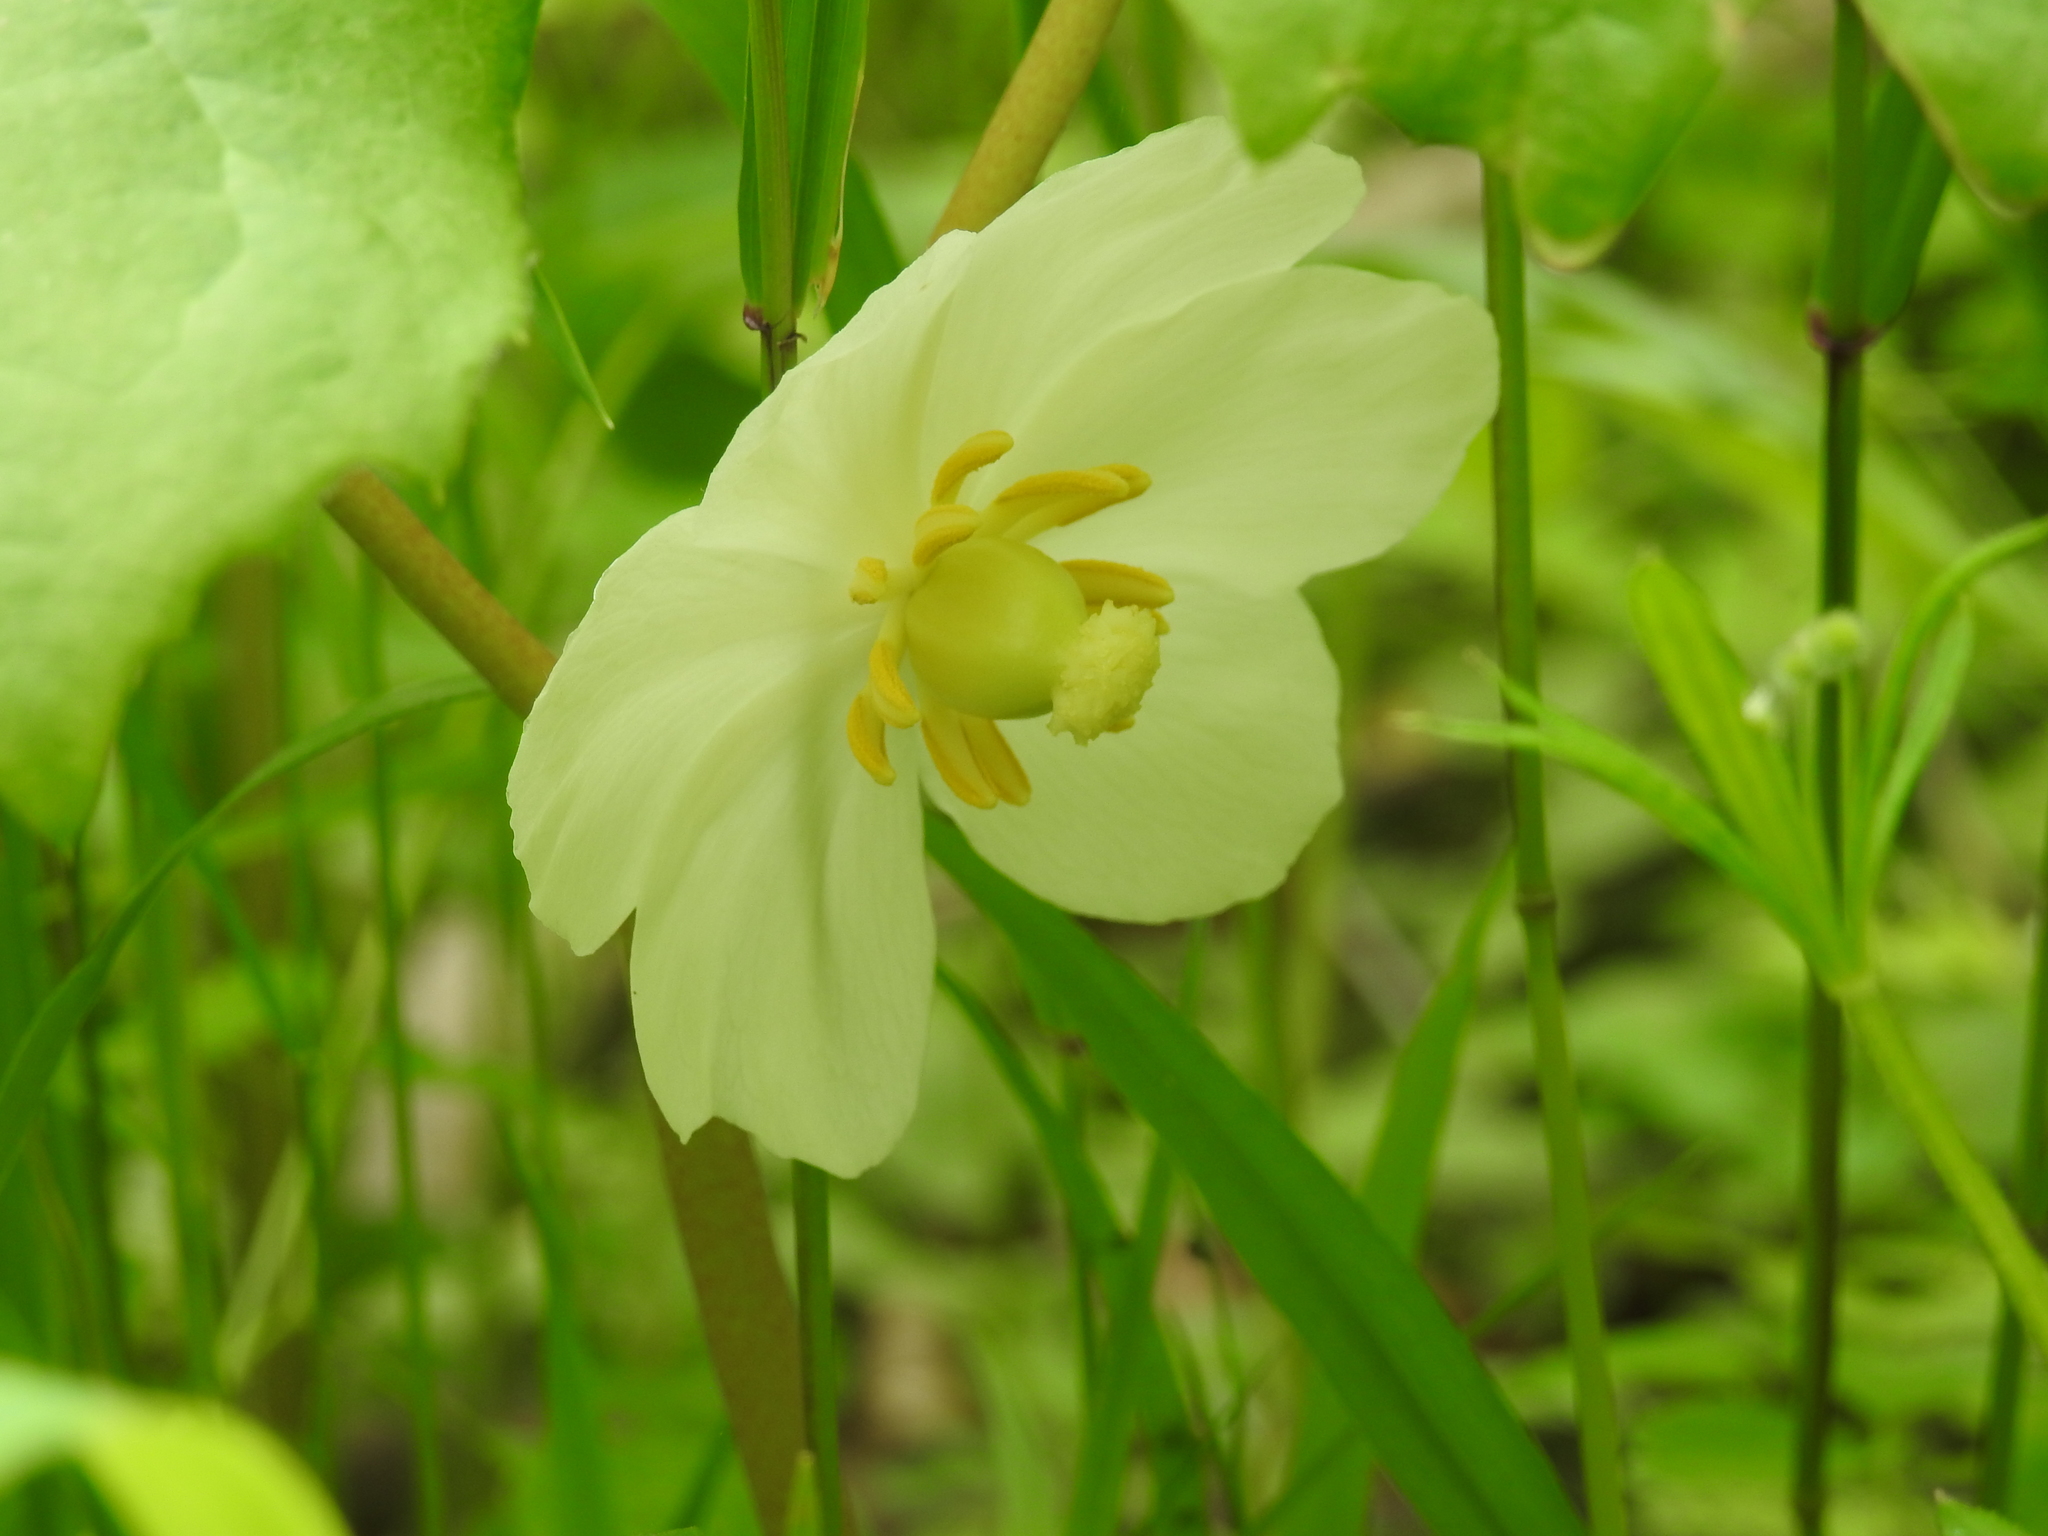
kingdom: Plantae
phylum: Tracheophyta
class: Magnoliopsida
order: Ranunculales
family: Berberidaceae
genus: Podophyllum
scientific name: Podophyllum peltatum
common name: Wild mandrake
